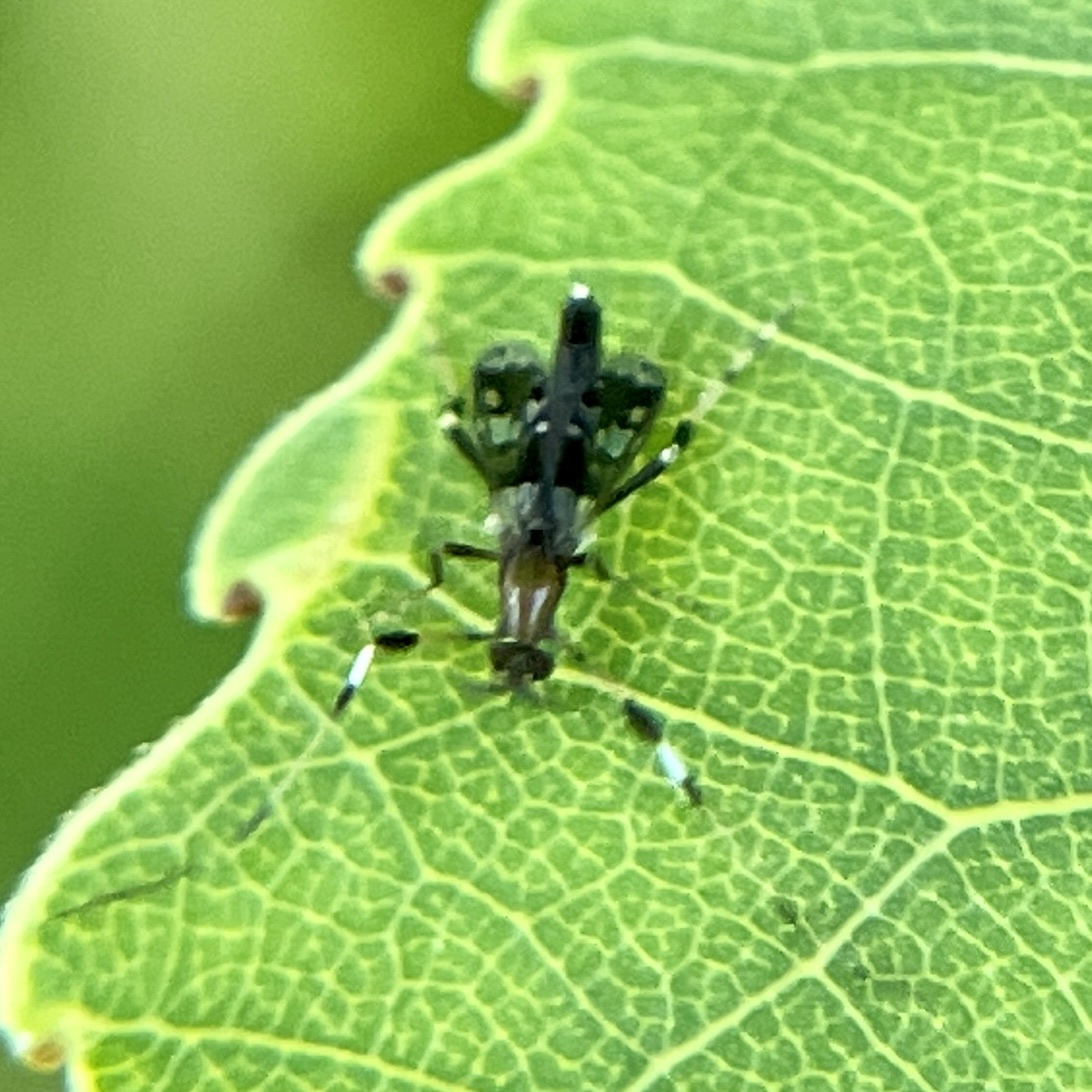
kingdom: Animalia
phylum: Arthropoda
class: Insecta
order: Diptera
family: Chironomidae
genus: Kribiodorum
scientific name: Kribiodorum
